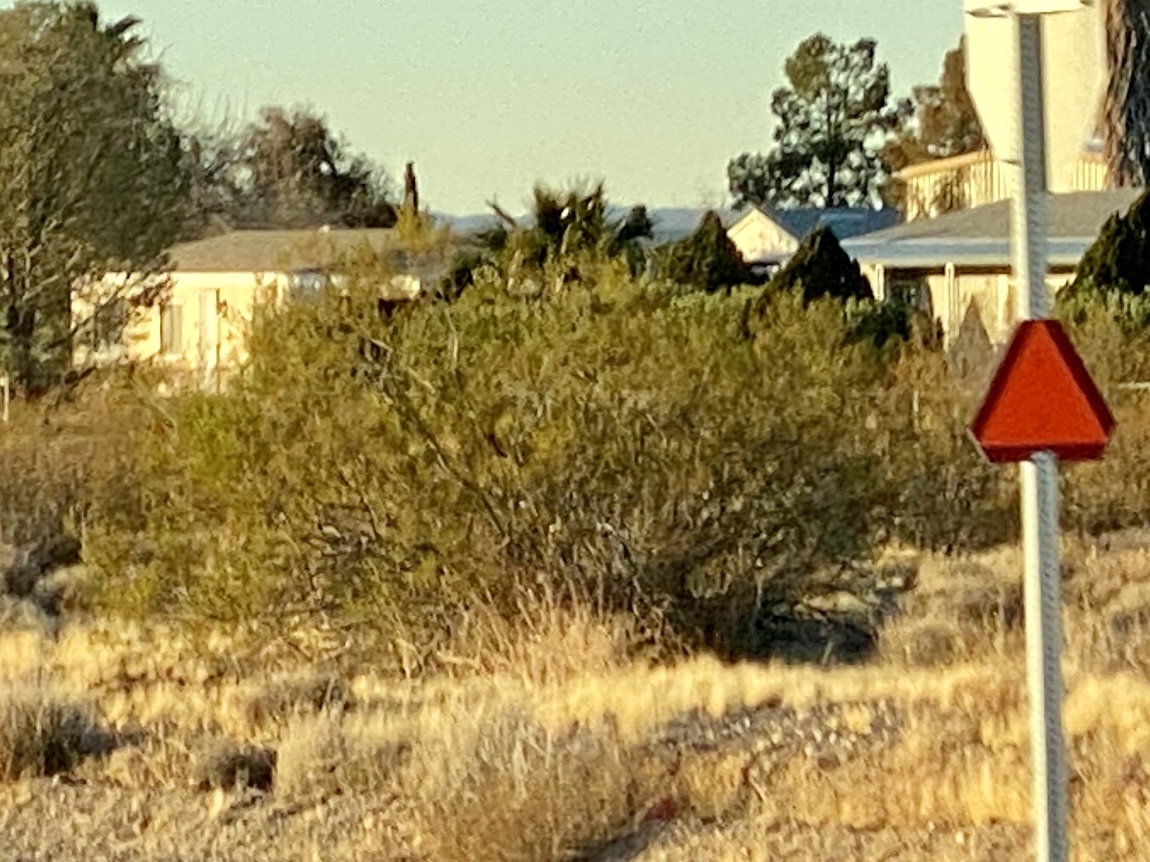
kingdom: Plantae
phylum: Tracheophyta
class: Magnoliopsida
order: Zygophyllales
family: Zygophyllaceae
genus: Larrea
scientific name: Larrea tridentata
